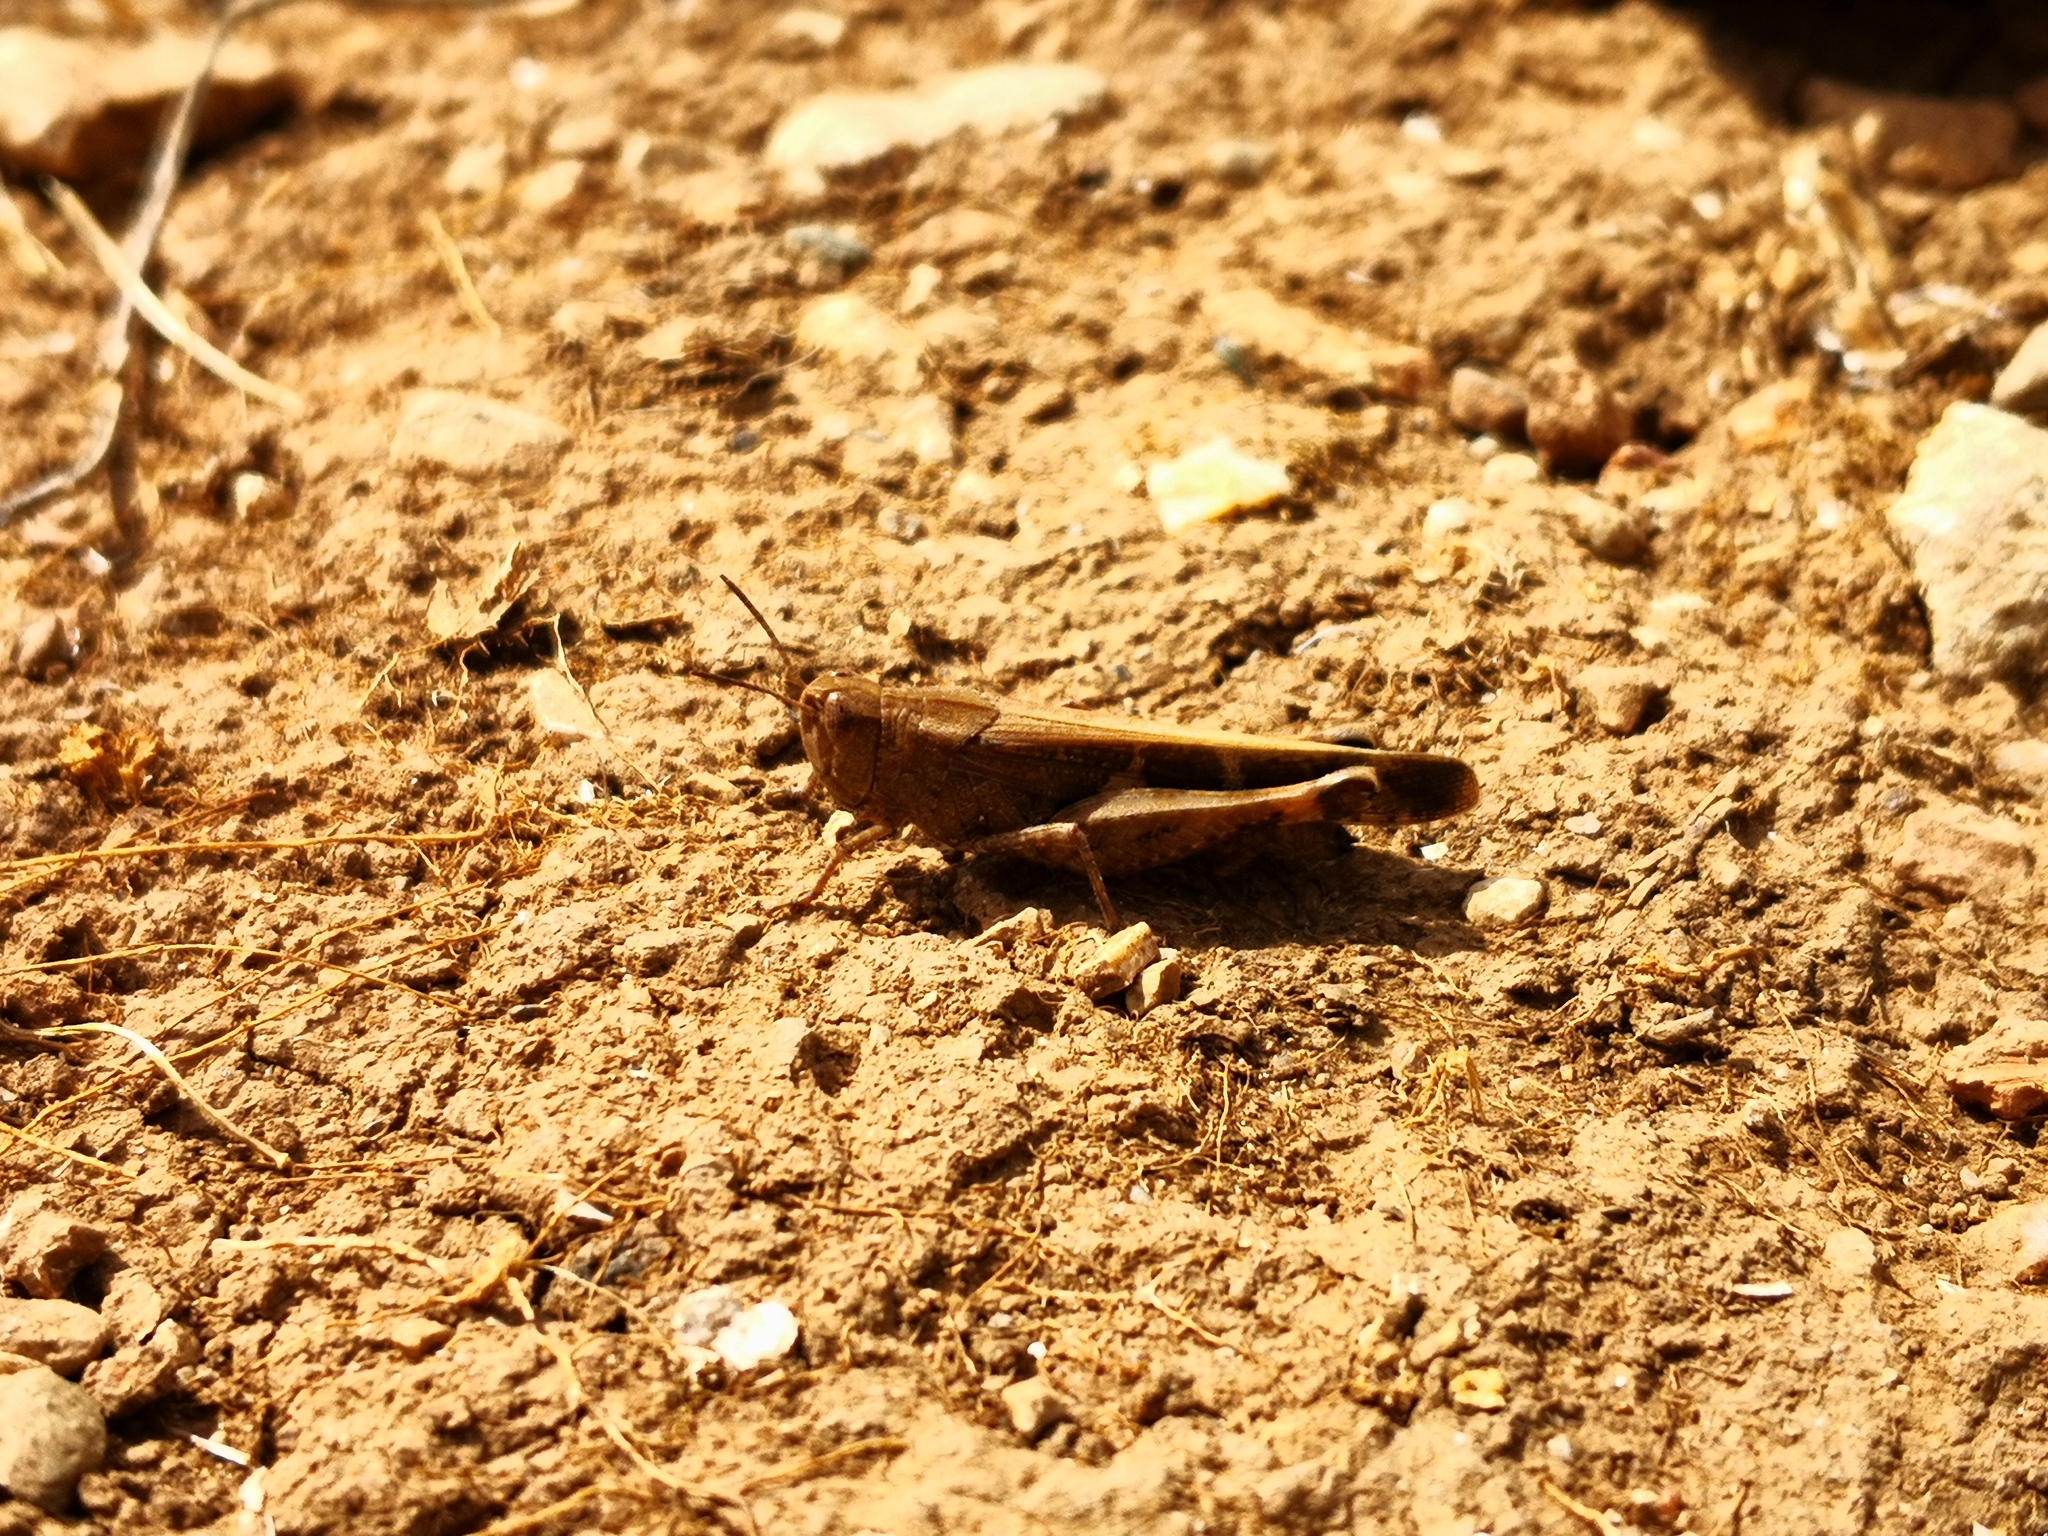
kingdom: Animalia
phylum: Arthropoda
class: Insecta
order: Orthoptera
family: Acrididae
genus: Aiolopus
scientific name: Aiolopus strepens
